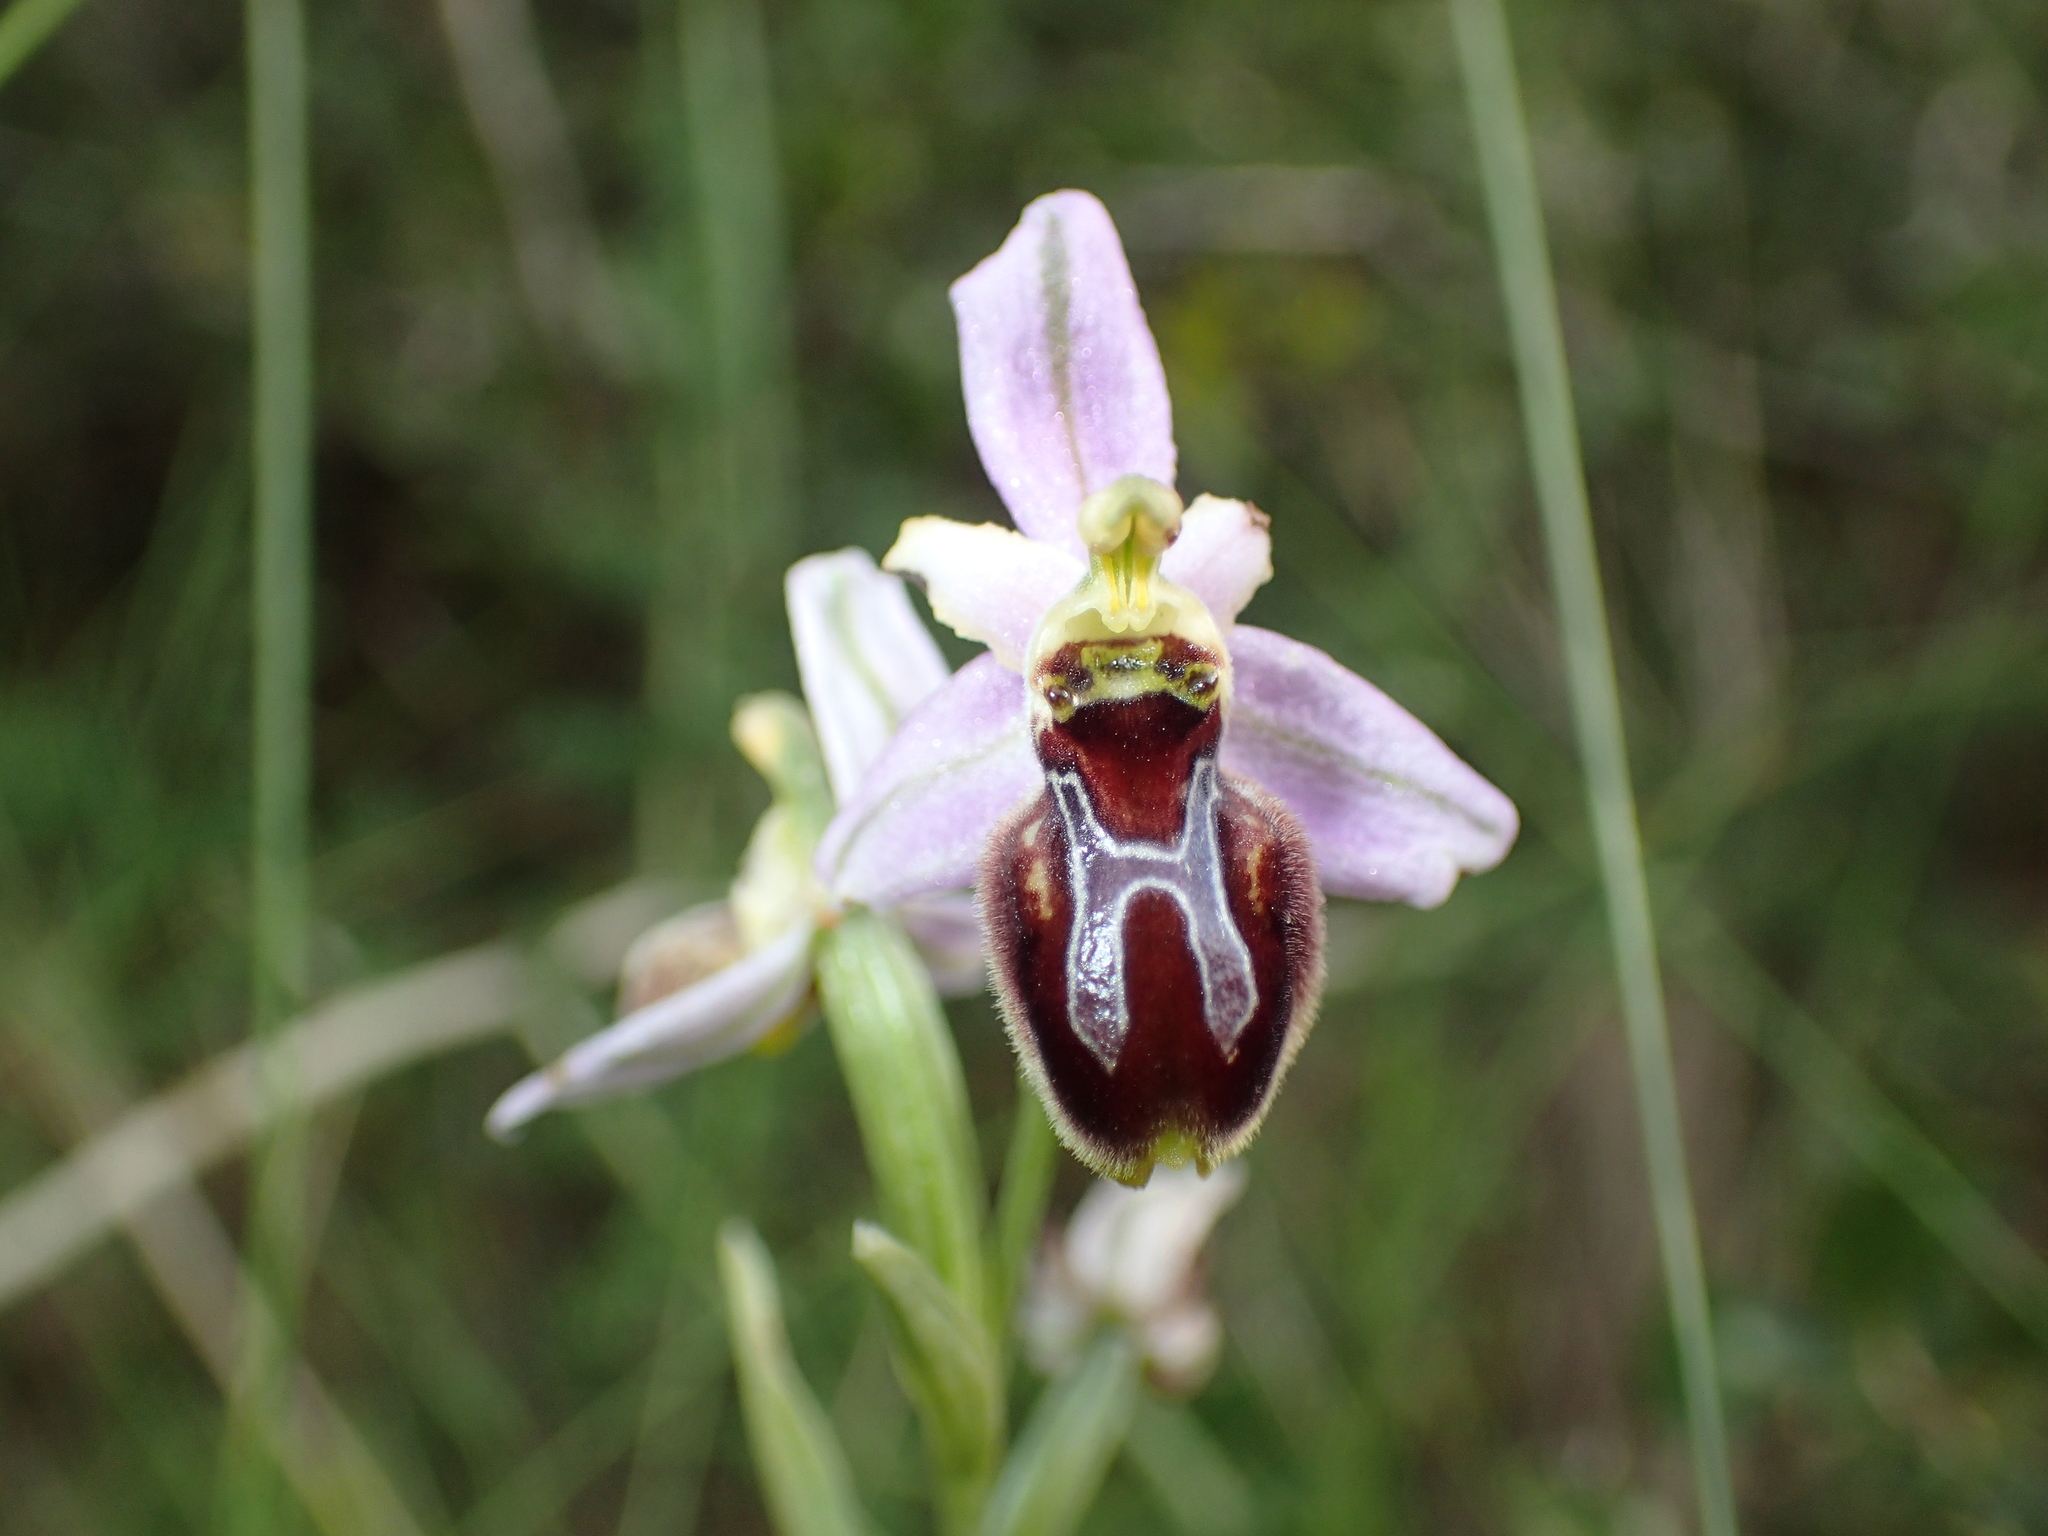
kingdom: Plantae
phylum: Tracheophyta
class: Liliopsida
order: Asparagales
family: Orchidaceae
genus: Ophrys
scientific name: Ophrys arachnitiformis
